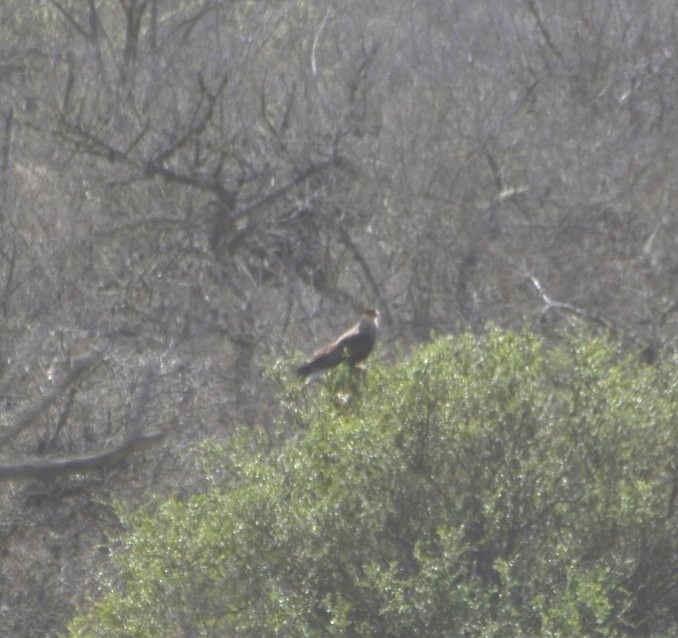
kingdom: Animalia
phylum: Chordata
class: Aves
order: Falconiformes
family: Falconidae
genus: Caracara
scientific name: Caracara plancus
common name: Southern caracara
